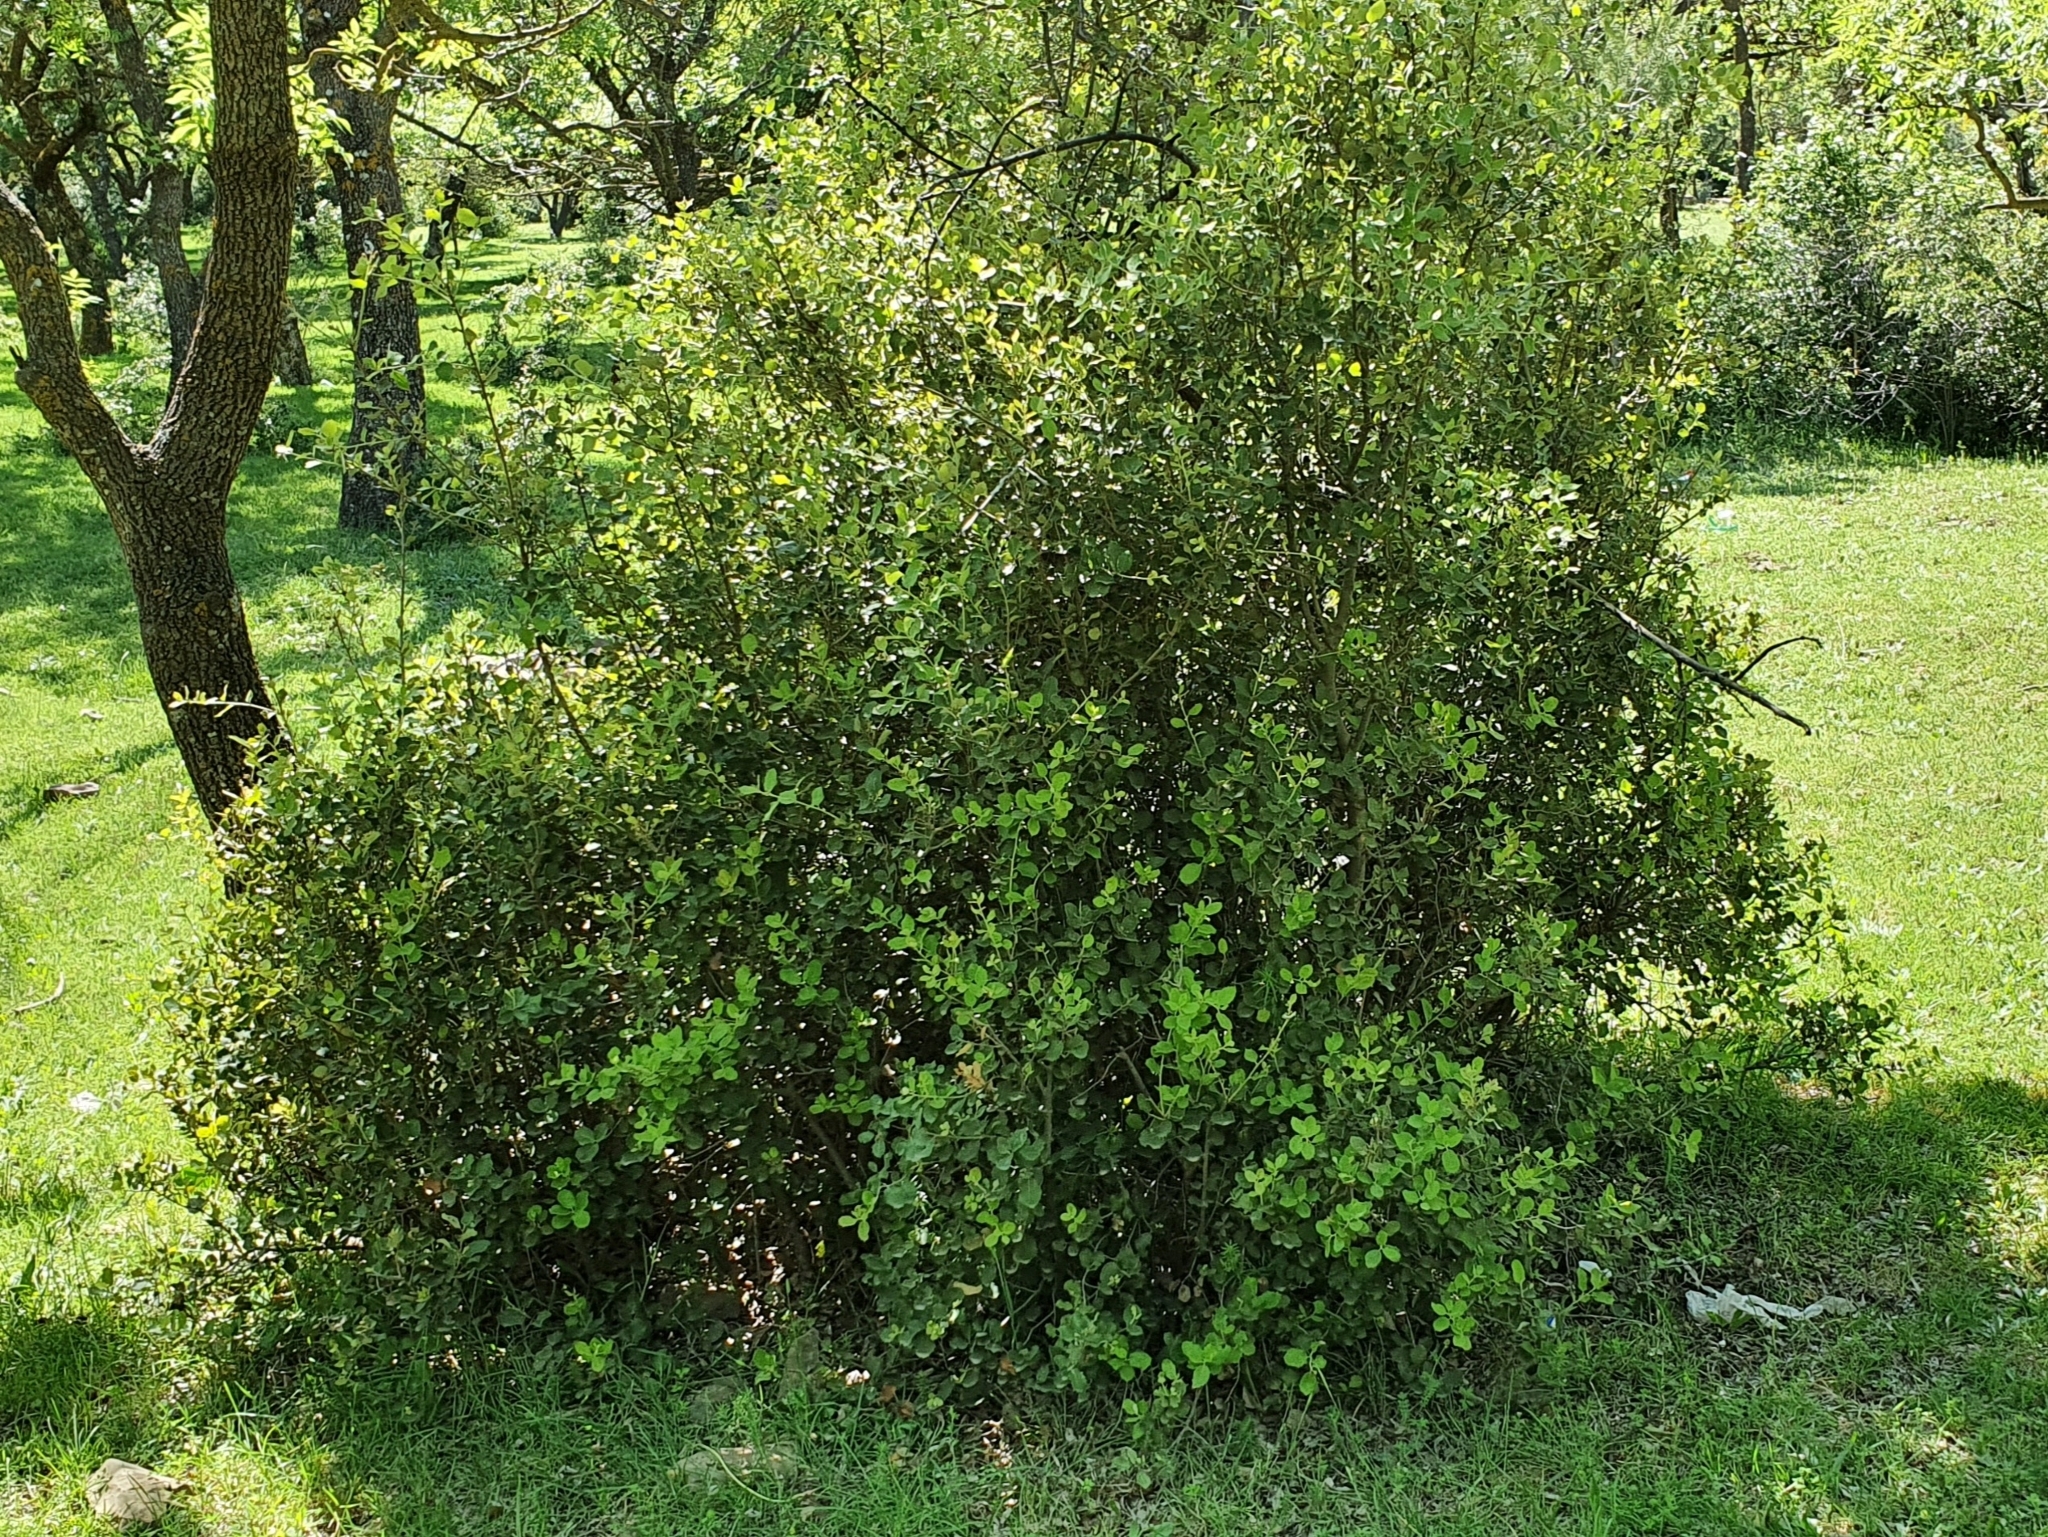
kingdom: Plantae
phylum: Tracheophyta
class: Magnoliopsida
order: Fagales
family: Fagaceae
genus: Quercus
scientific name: Quercus rotundifolia
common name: Holm oak
